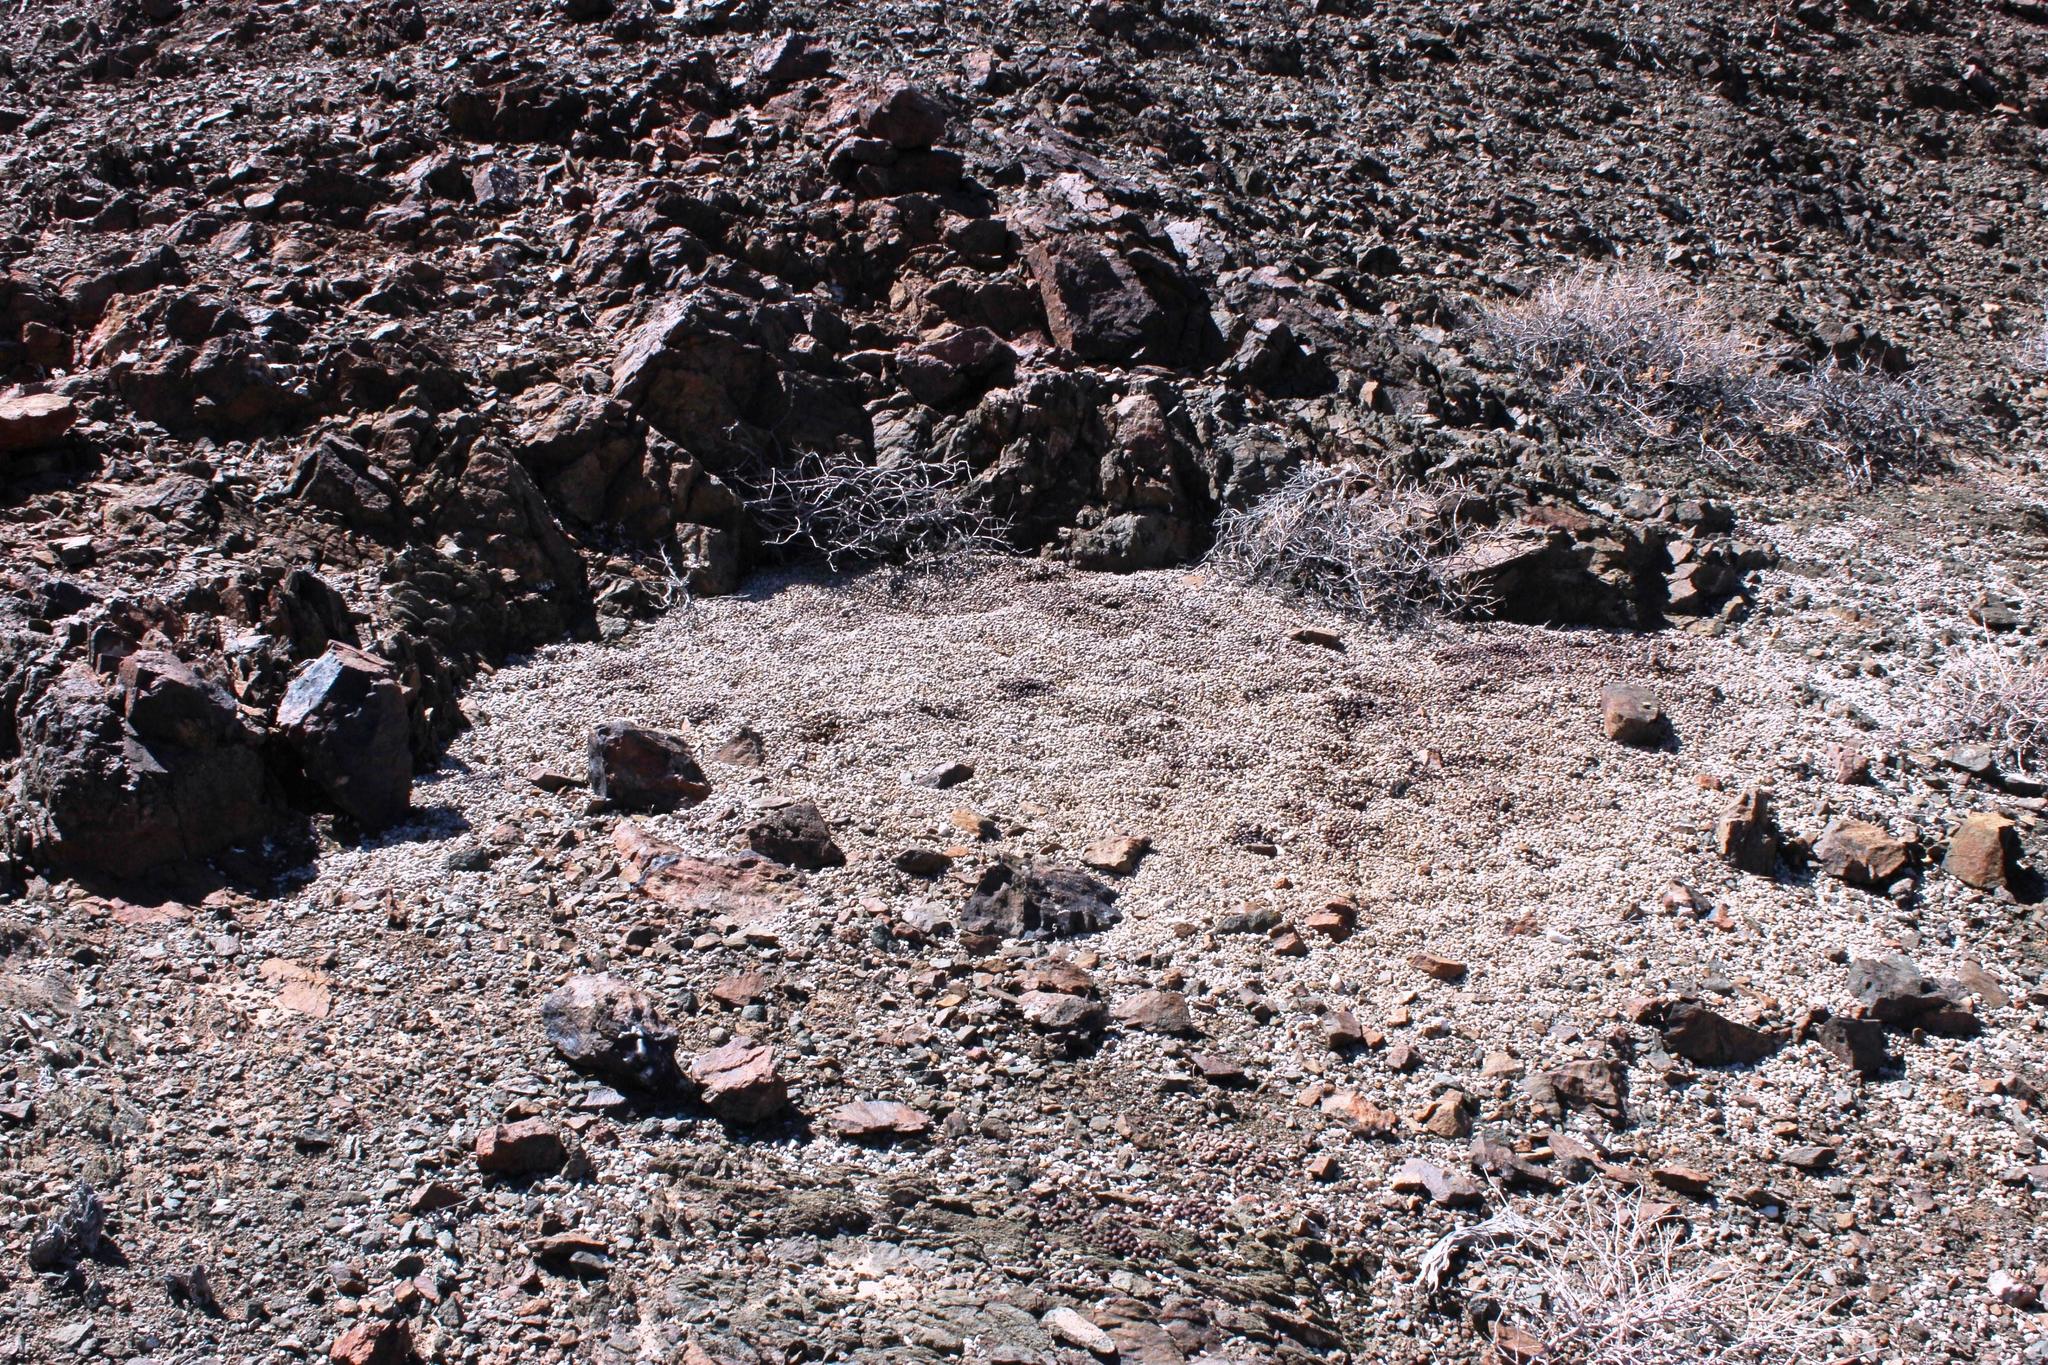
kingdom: Animalia
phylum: Chordata
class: Mammalia
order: Lagomorpha
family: Leporidae
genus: Pronolagus
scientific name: Pronolagus rupestris
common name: Smith's red rock hare
